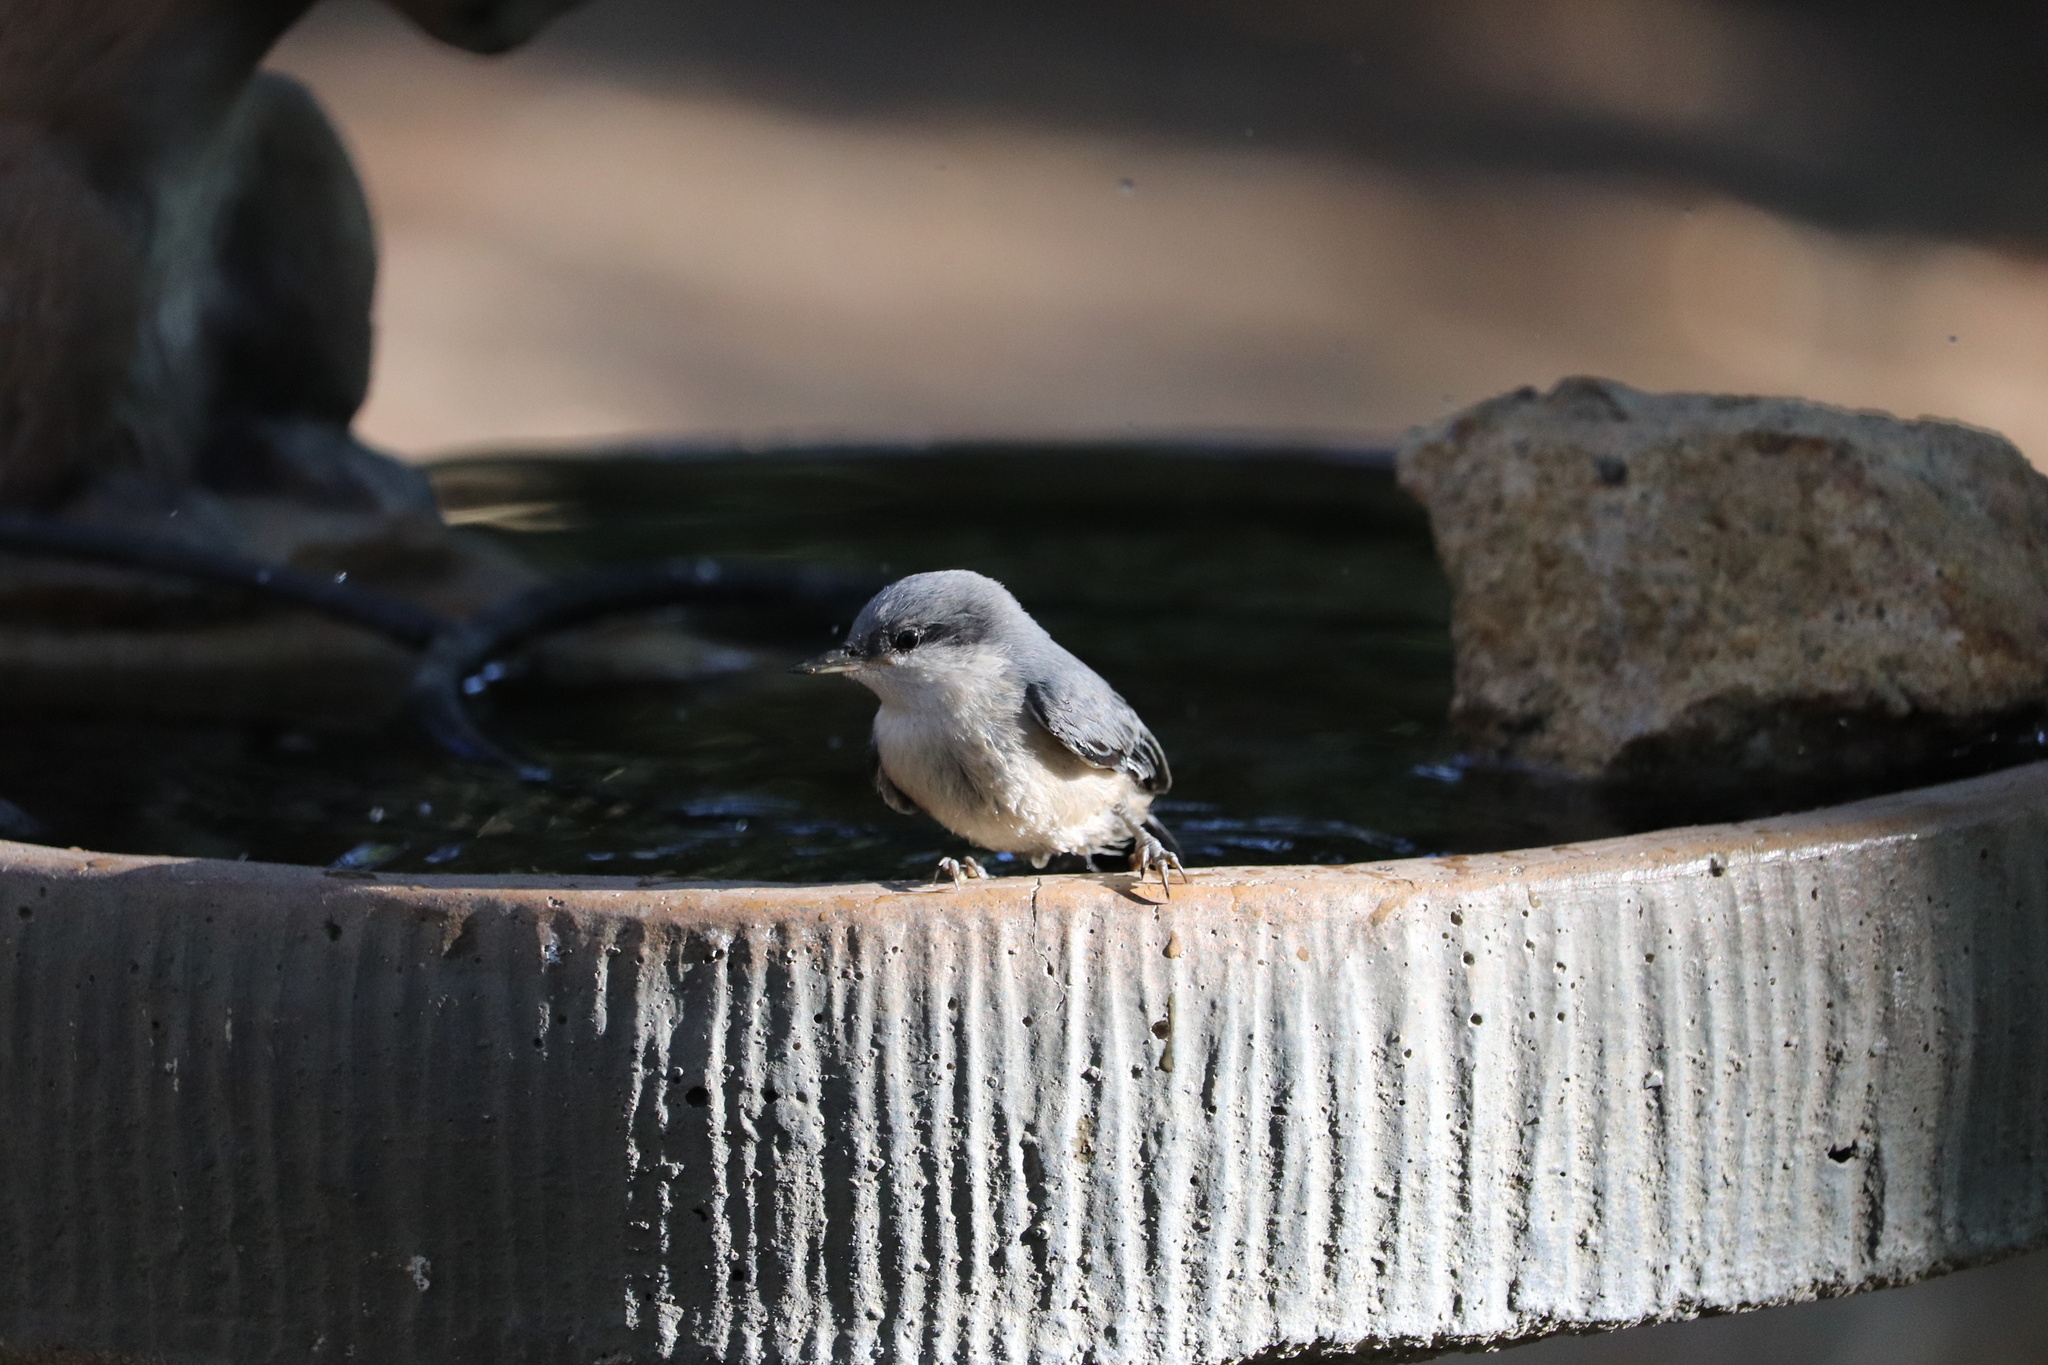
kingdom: Animalia
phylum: Chordata
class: Aves
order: Passeriformes
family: Sittidae
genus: Sitta
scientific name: Sitta pygmaea
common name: Pygmy nuthatch
